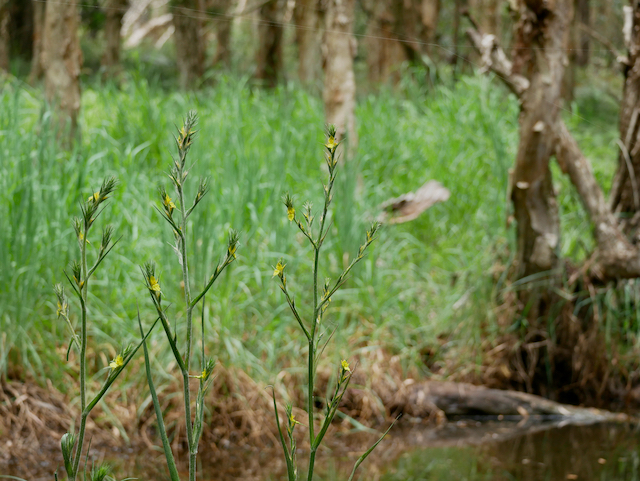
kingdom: Plantae
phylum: Tracheophyta
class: Liliopsida
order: Commelinales
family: Philydraceae
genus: Philydrum
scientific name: Philydrum lanuginosum
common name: Woolly frog's mouth
